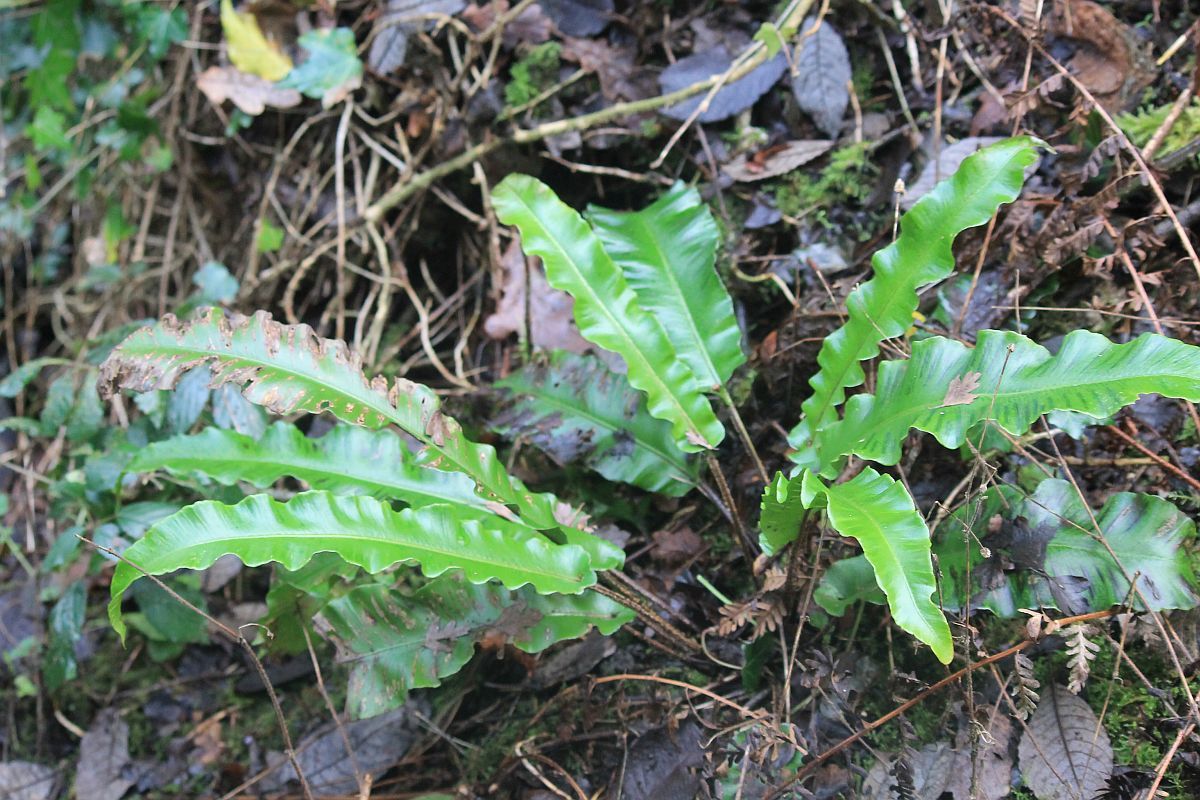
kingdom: Plantae
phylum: Tracheophyta
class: Polypodiopsida
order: Polypodiales
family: Aspleniaceae
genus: Asplenium
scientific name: Asplenium scolopendrium
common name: Hart's-tongue fern
